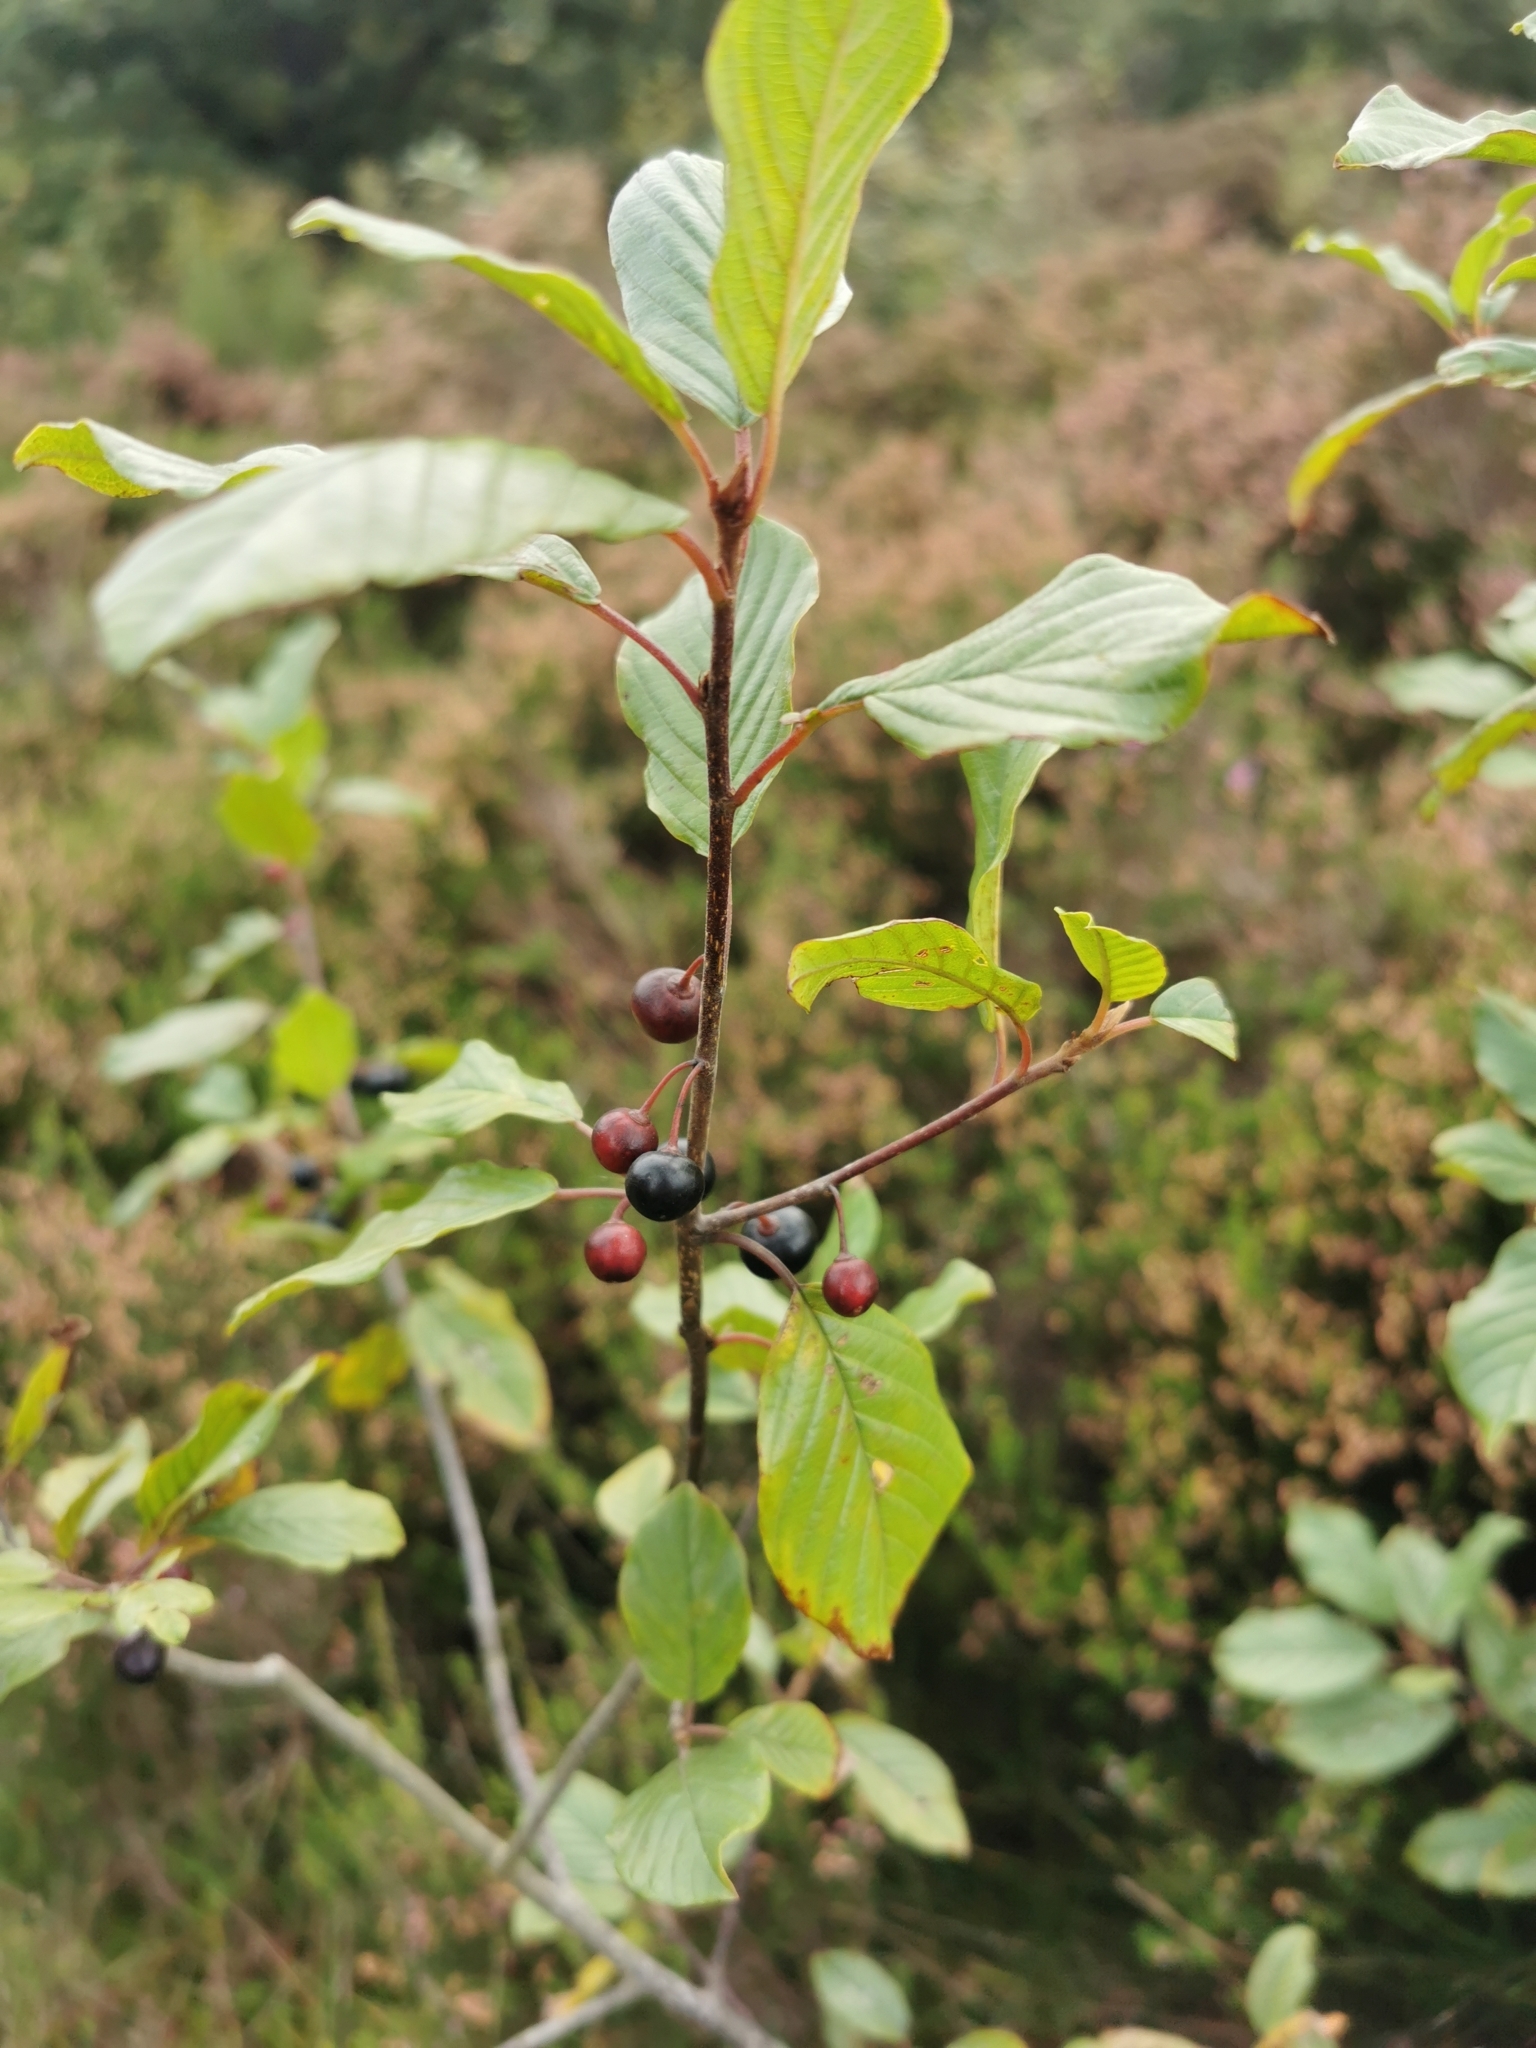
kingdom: Plantae
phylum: Tracheophyta
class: Magnoliopsida
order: Rosales
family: Rhamnaceae
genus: Frangula
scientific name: Frangula alnus
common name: Alder buckthorn
